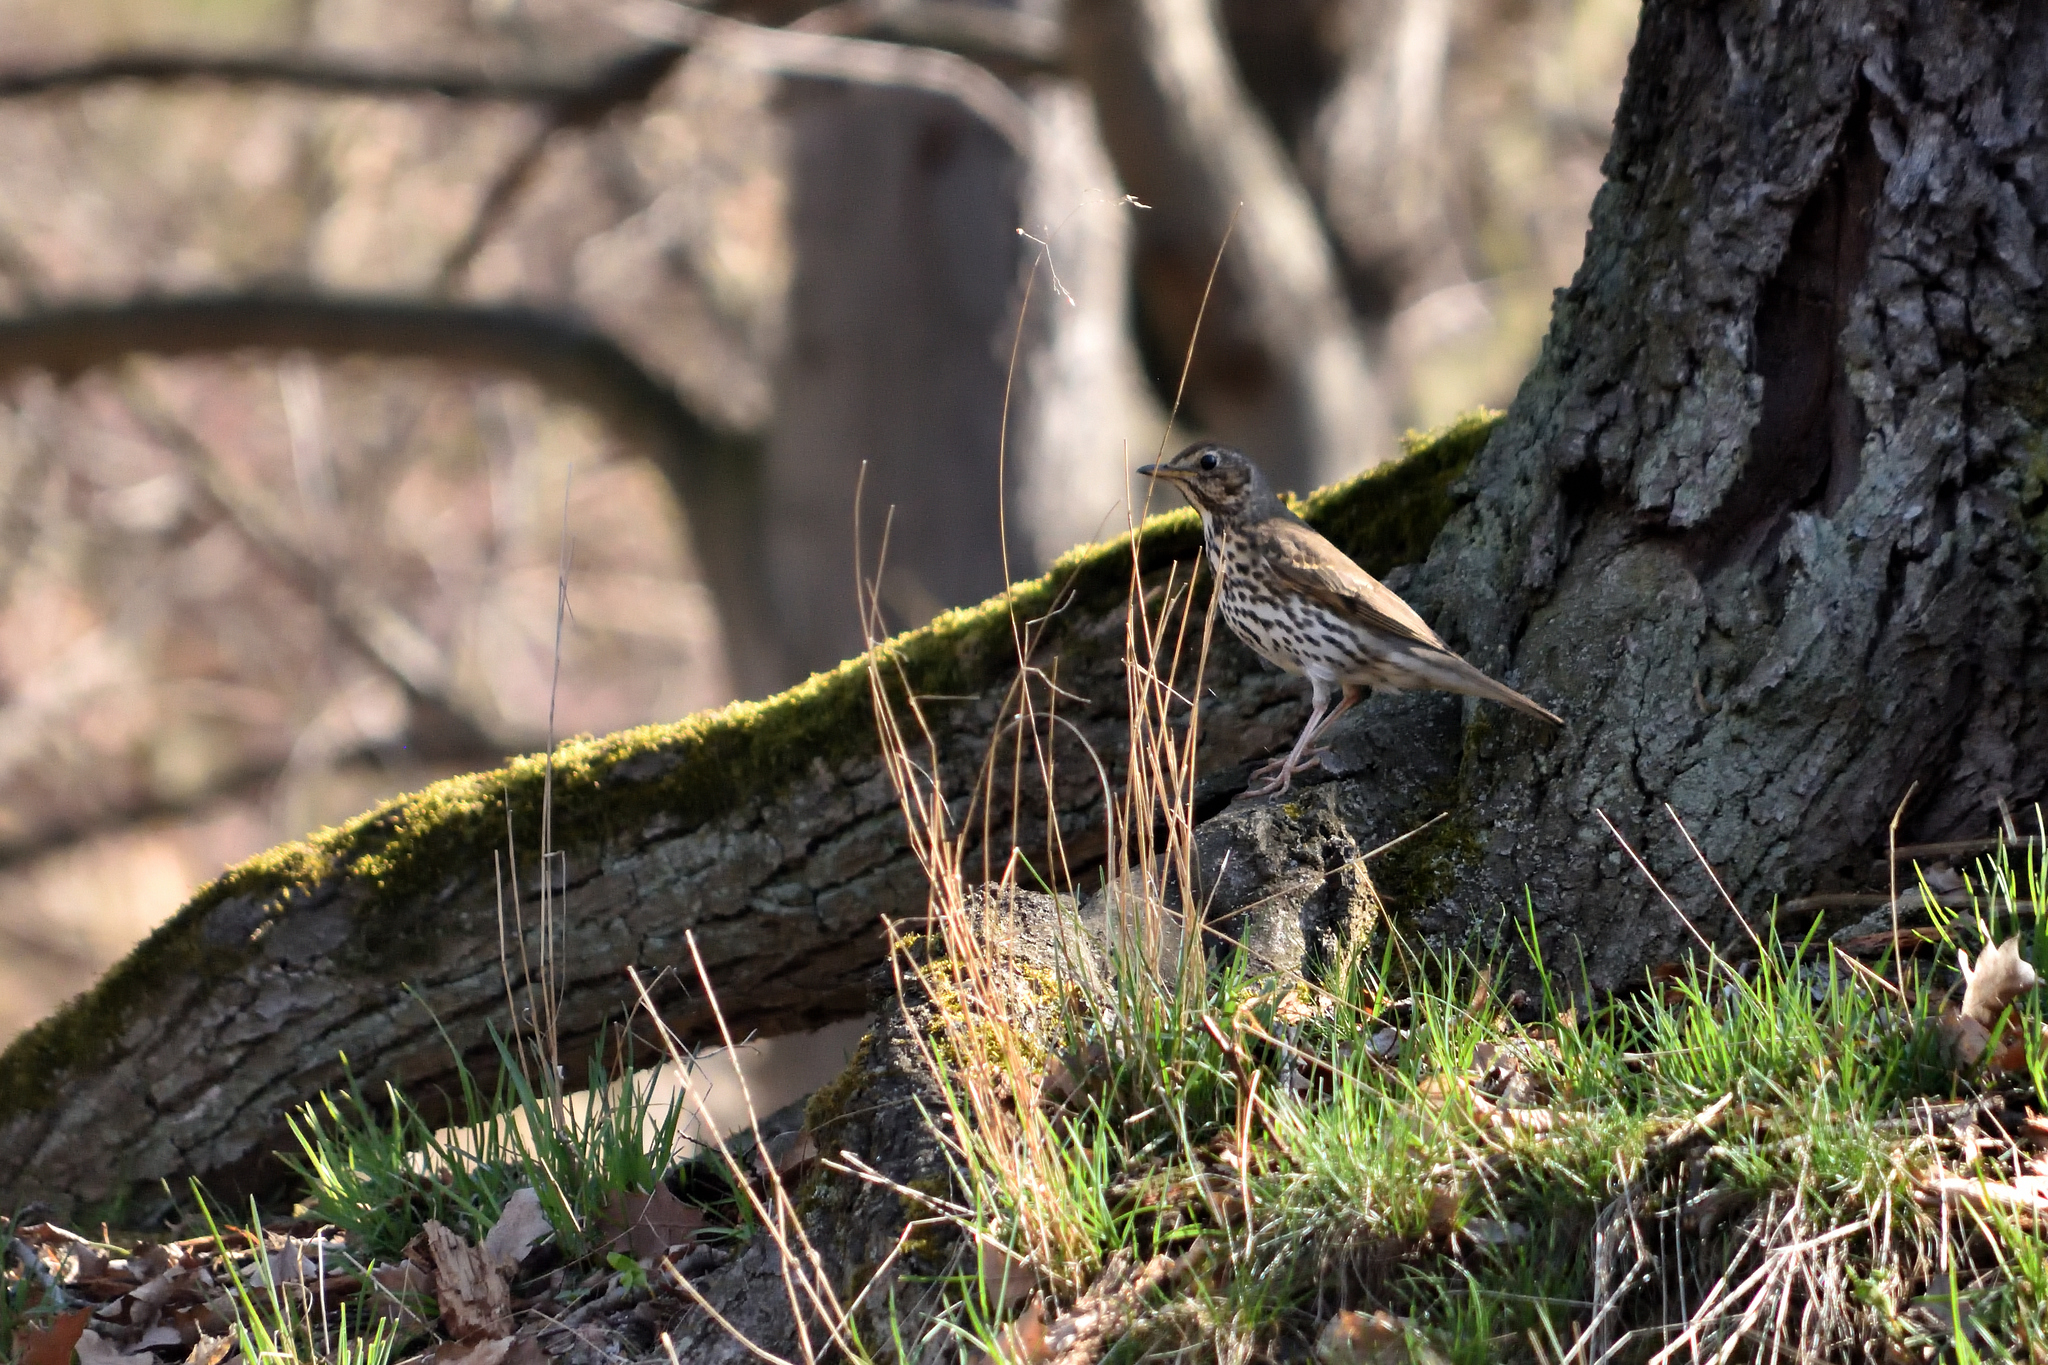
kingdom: Animalia
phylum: Chordata
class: Aves
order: Passeriformes
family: Turdidae
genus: Turdus
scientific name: Turdus philomelos
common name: Song thrush
